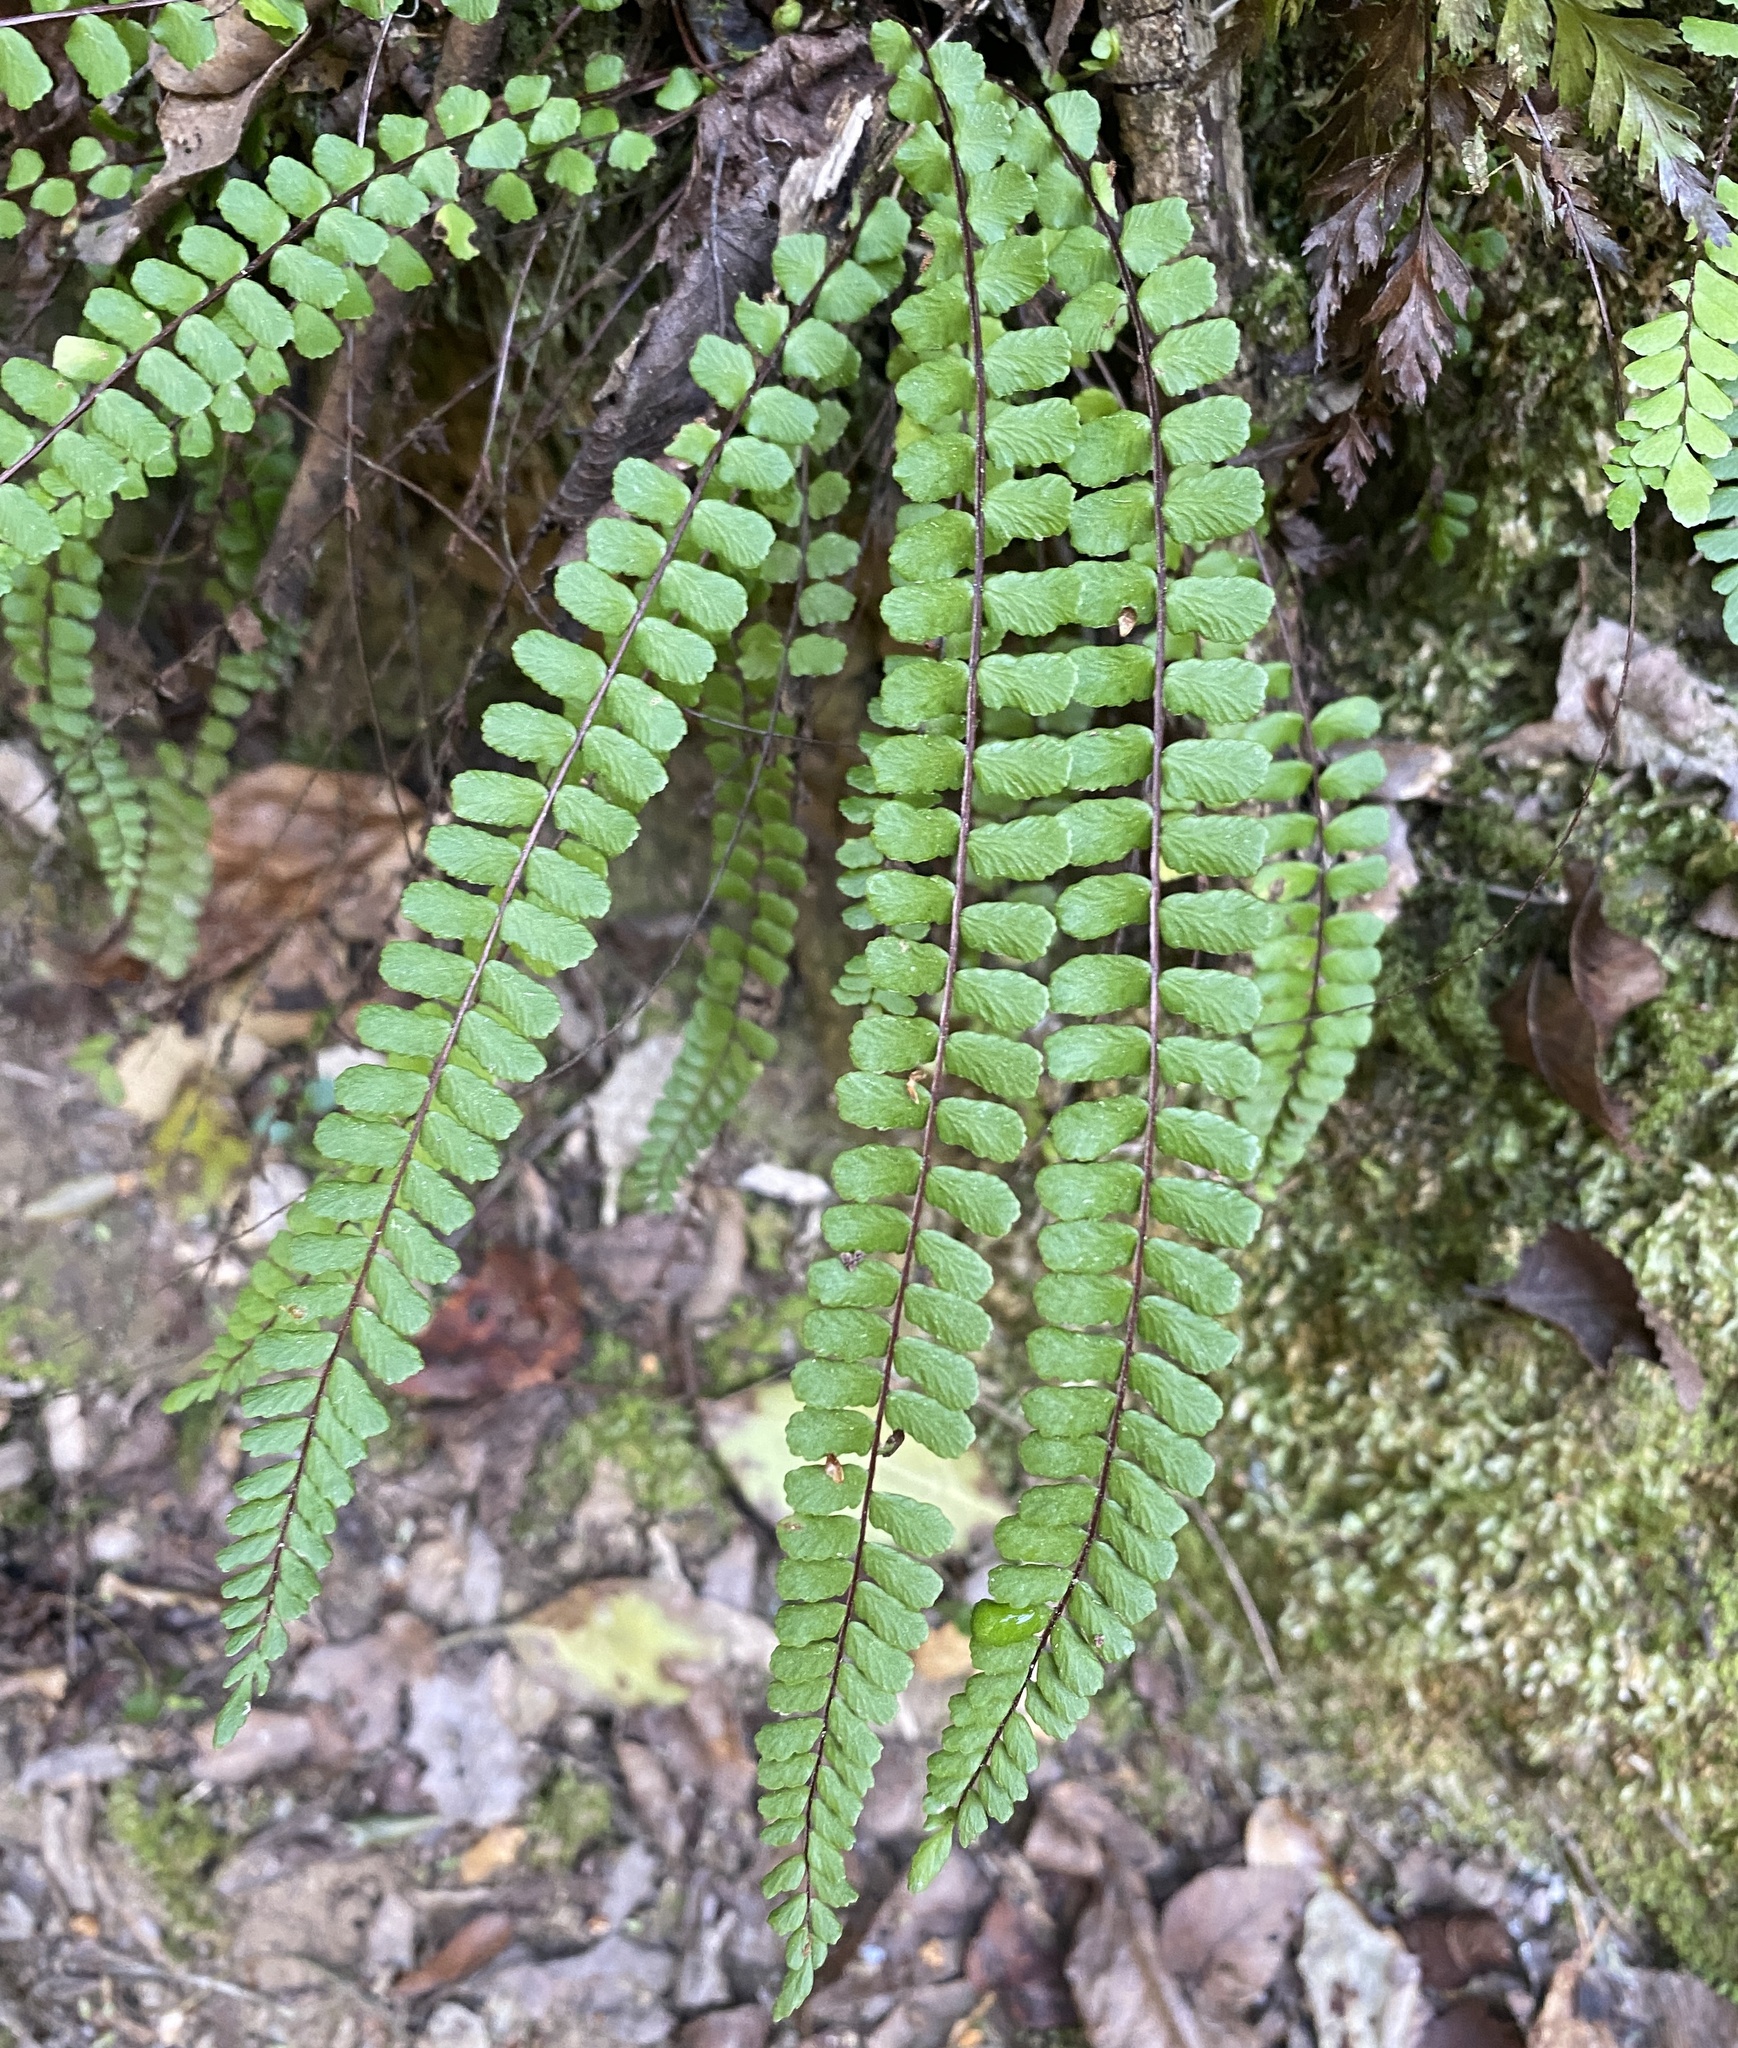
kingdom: Plantae
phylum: Tracheophyta
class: Polypodiopsida
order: Polypodiales
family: Aspleniaceae
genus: Asplenium
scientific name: Asplenium trichomanes
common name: Maidenhair spleenwort
